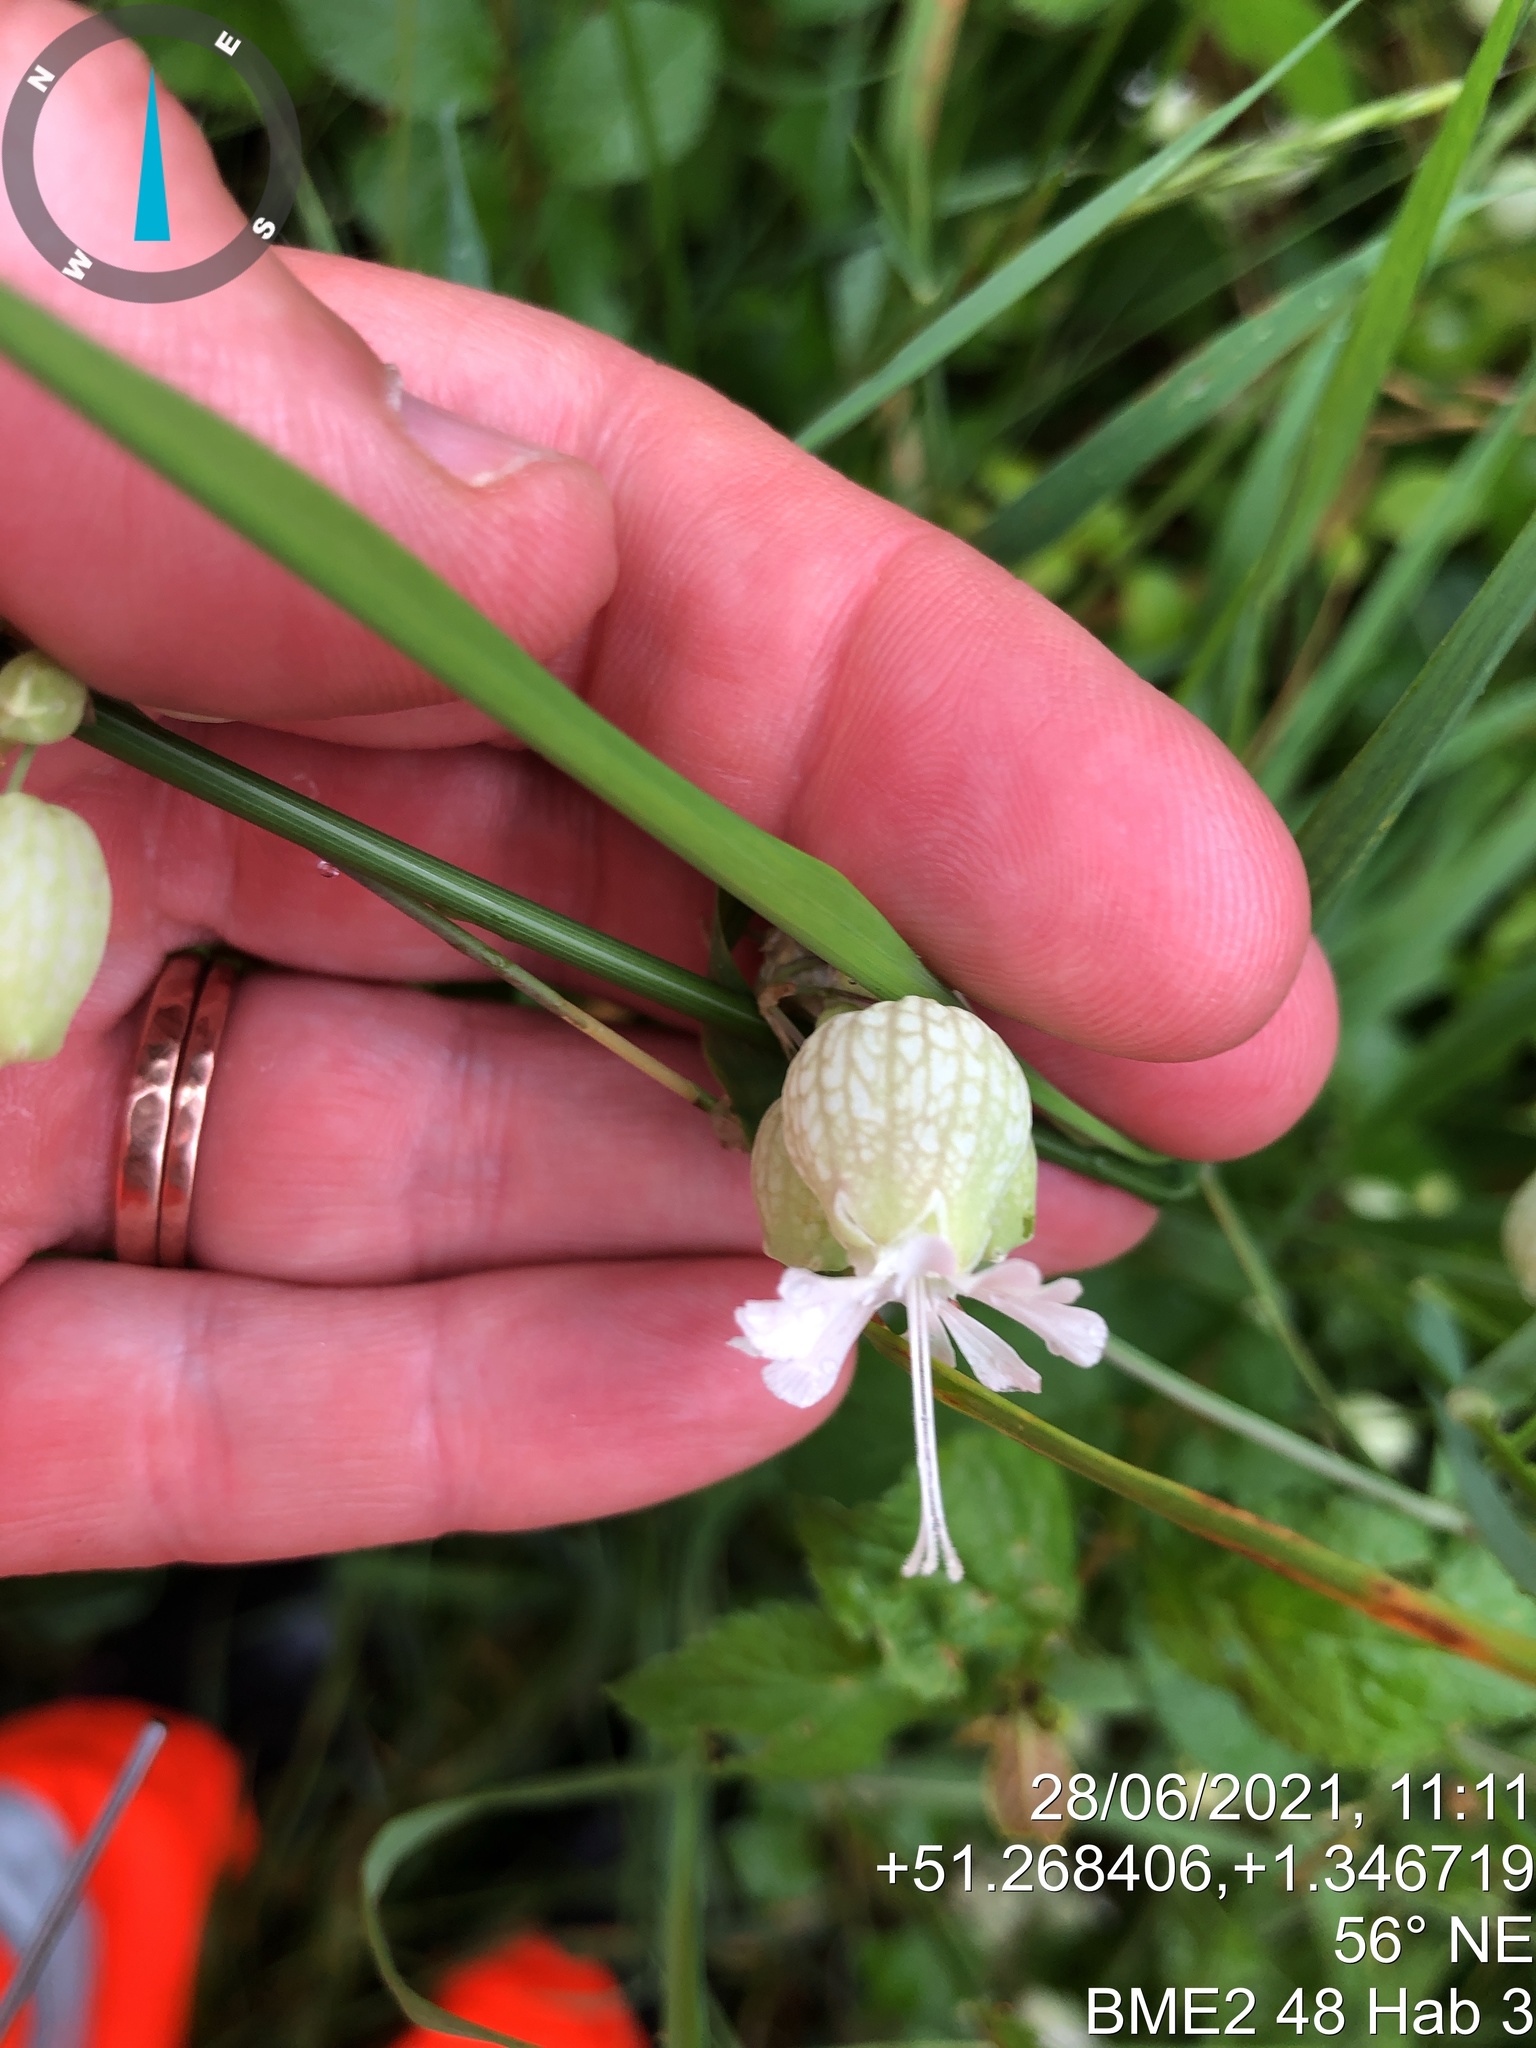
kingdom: Plantae
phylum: Tracheophyta
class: Magnoliopsida
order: Caryophyllales
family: Caryophyllaceae
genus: Silene
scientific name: Silene vulgaris
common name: Bladder campion
